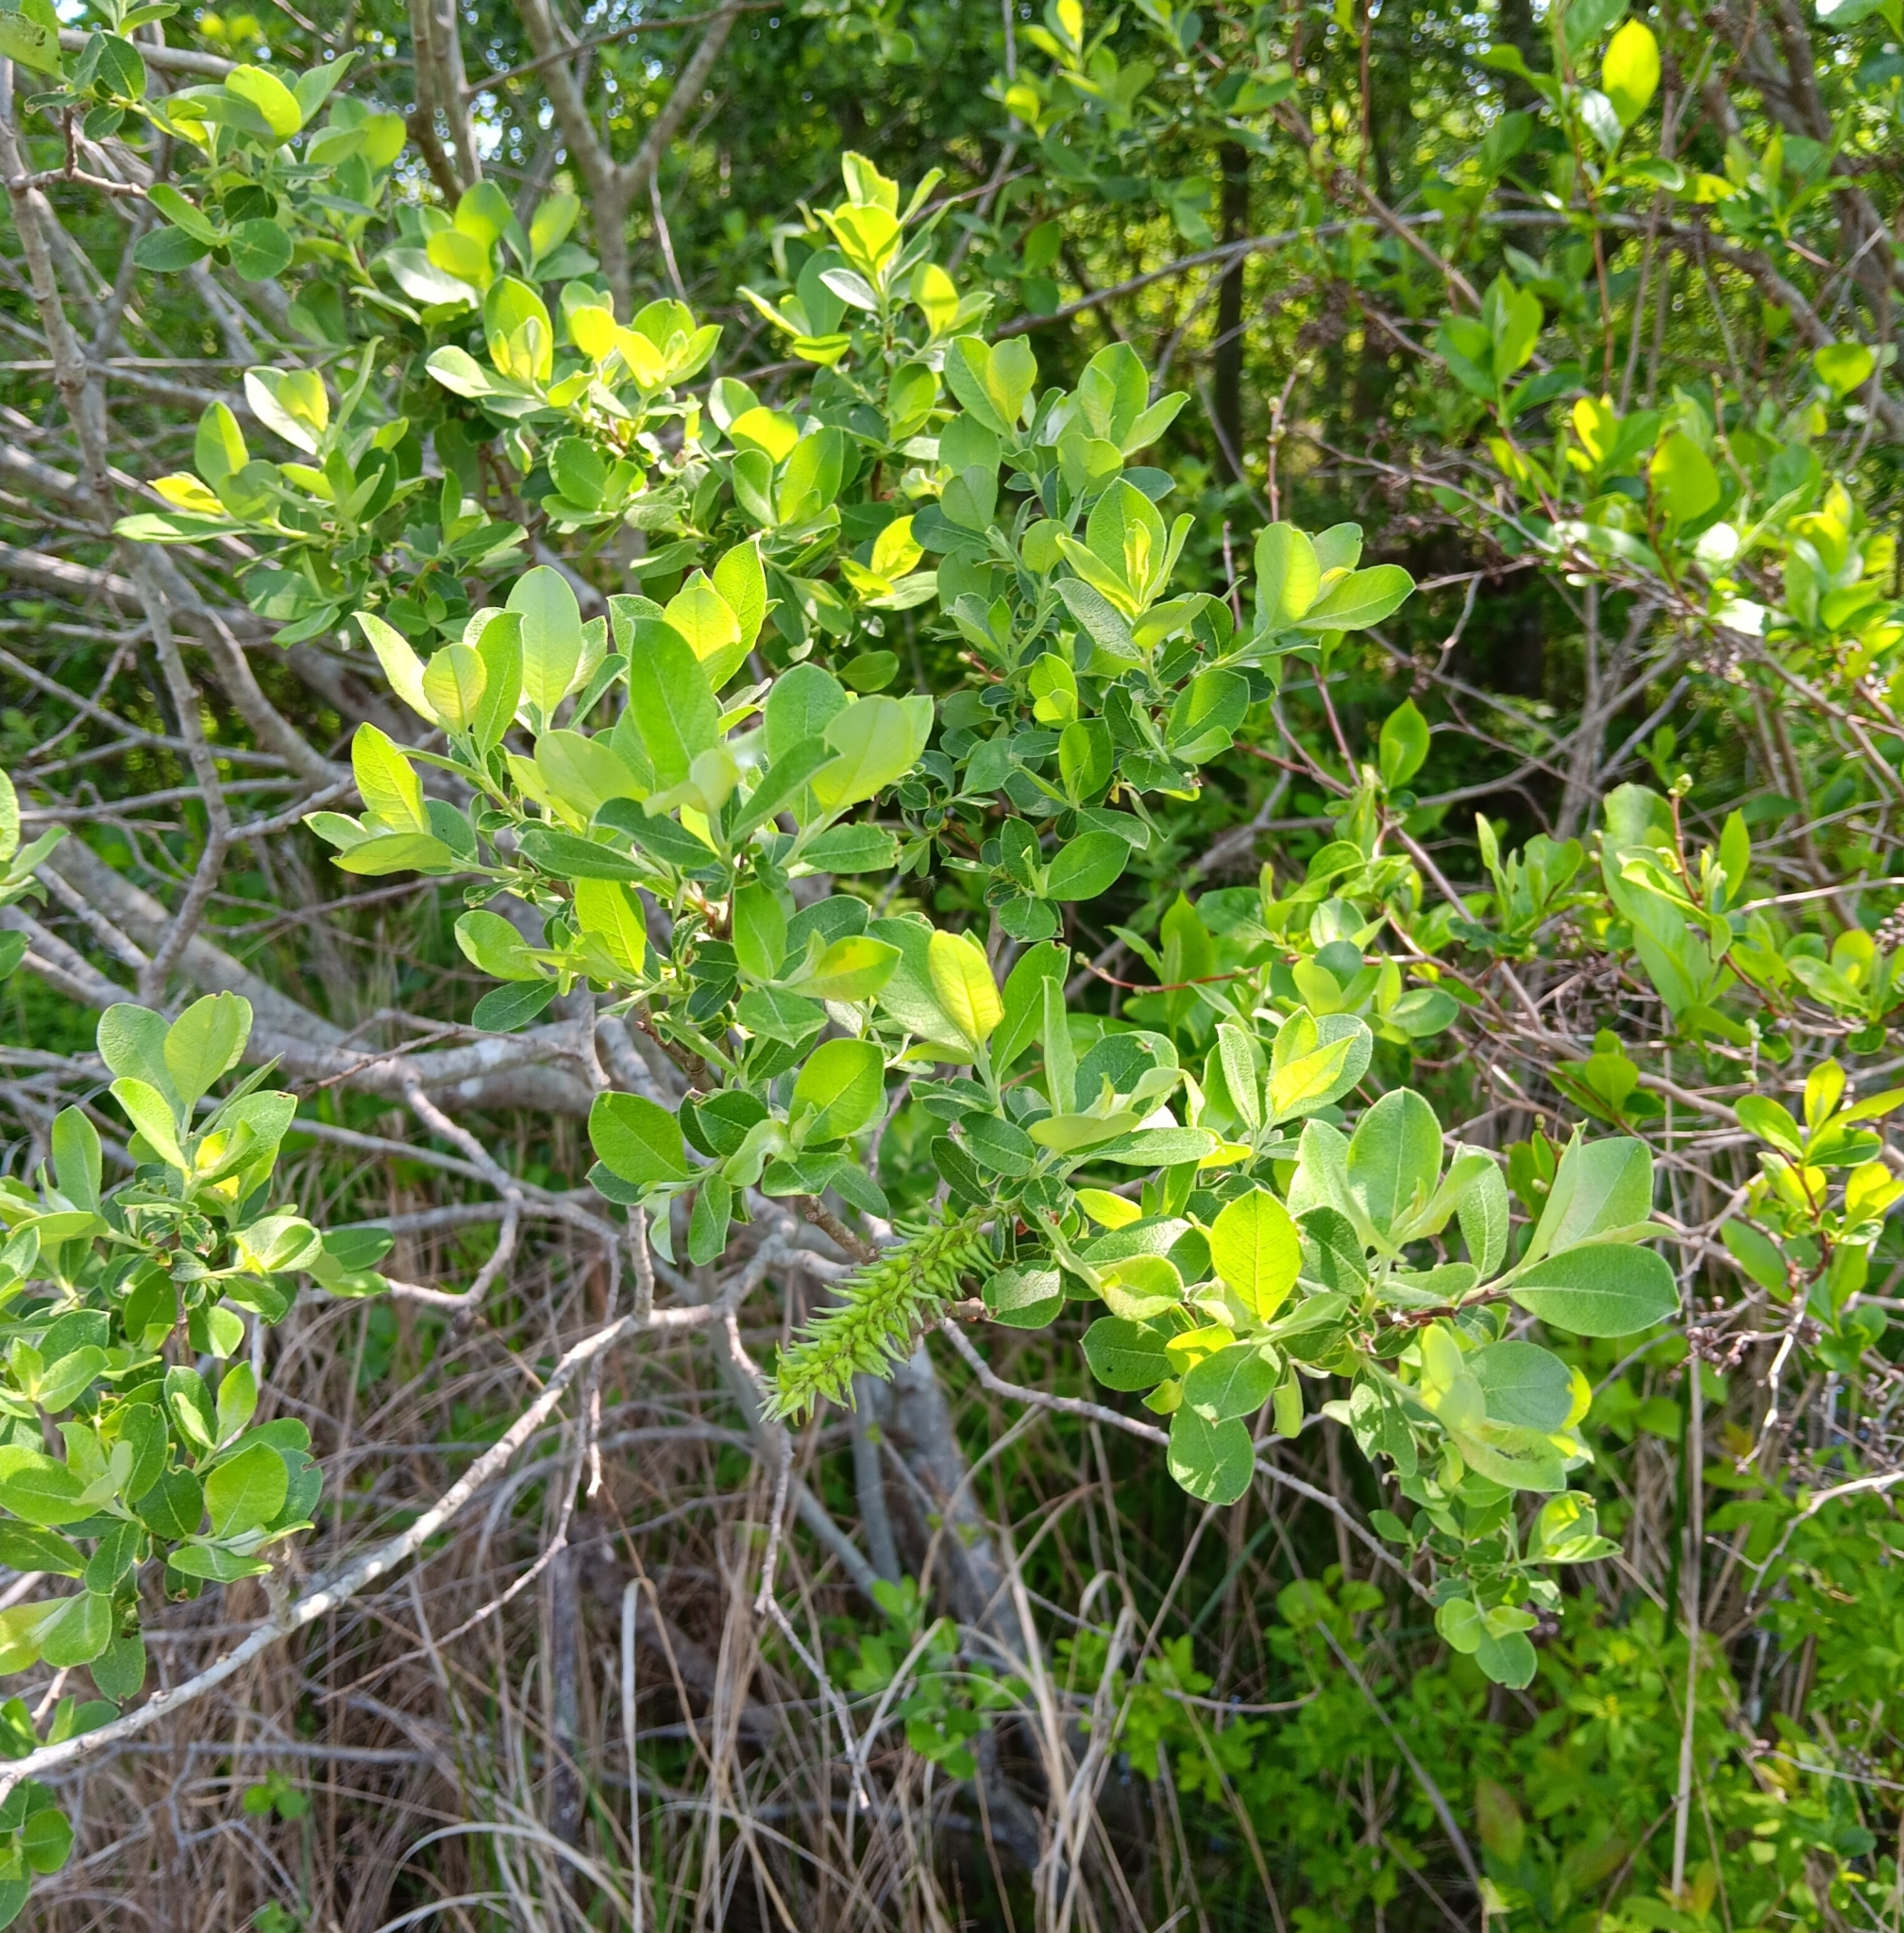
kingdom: Plantae
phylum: Tracheophyta
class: Magnoliopsida
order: Malpighiales
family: Salicaceae
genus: Salix
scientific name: Salix cinerea
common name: Common sallow
